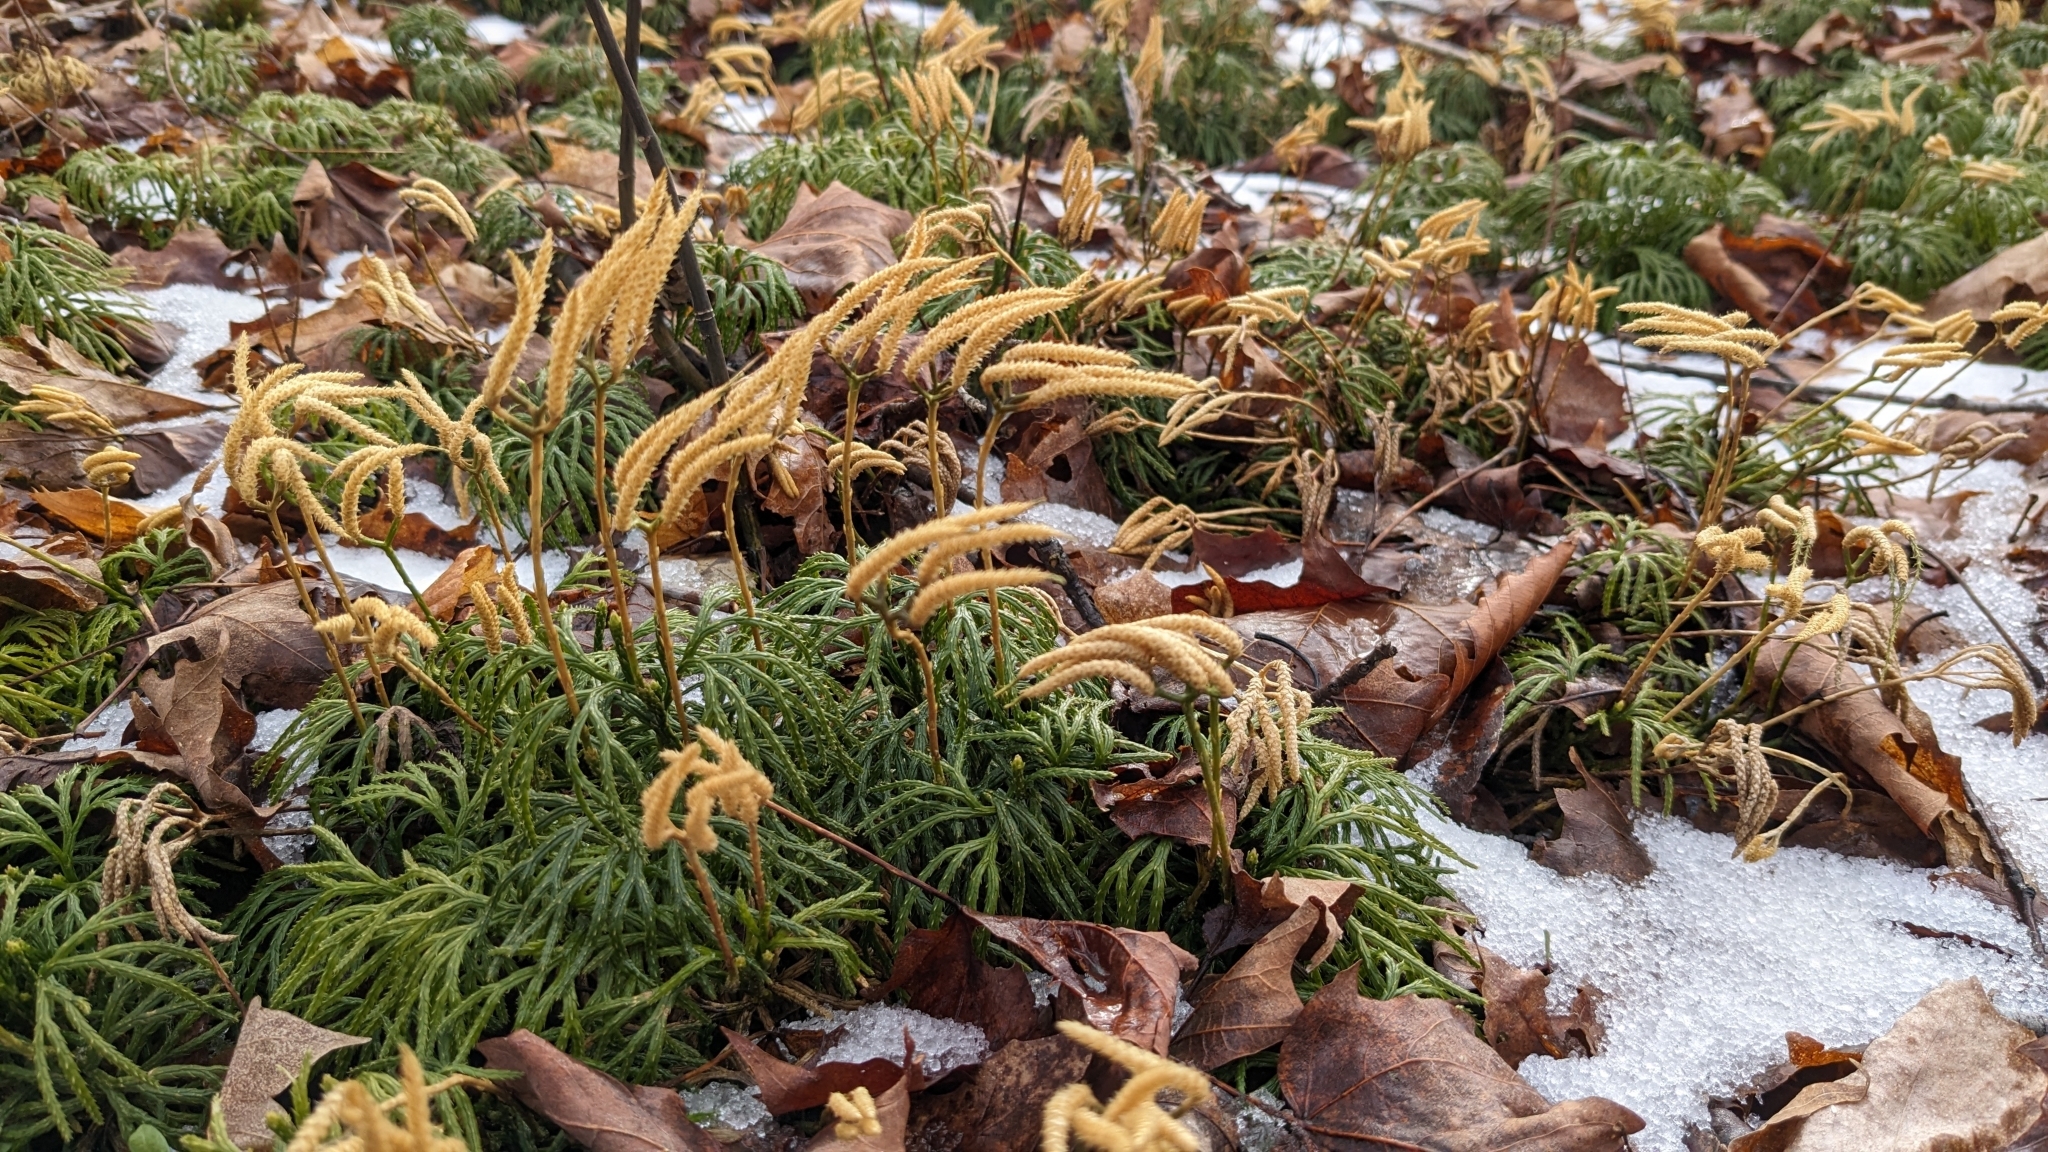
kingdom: Plantae
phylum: Tracheophyta
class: Lycopodiopsida
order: Lycopodiales
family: Lycopodiaceae
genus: Diphasiastrum
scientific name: Diphasiastrum digitatum
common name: Southern running-pine
